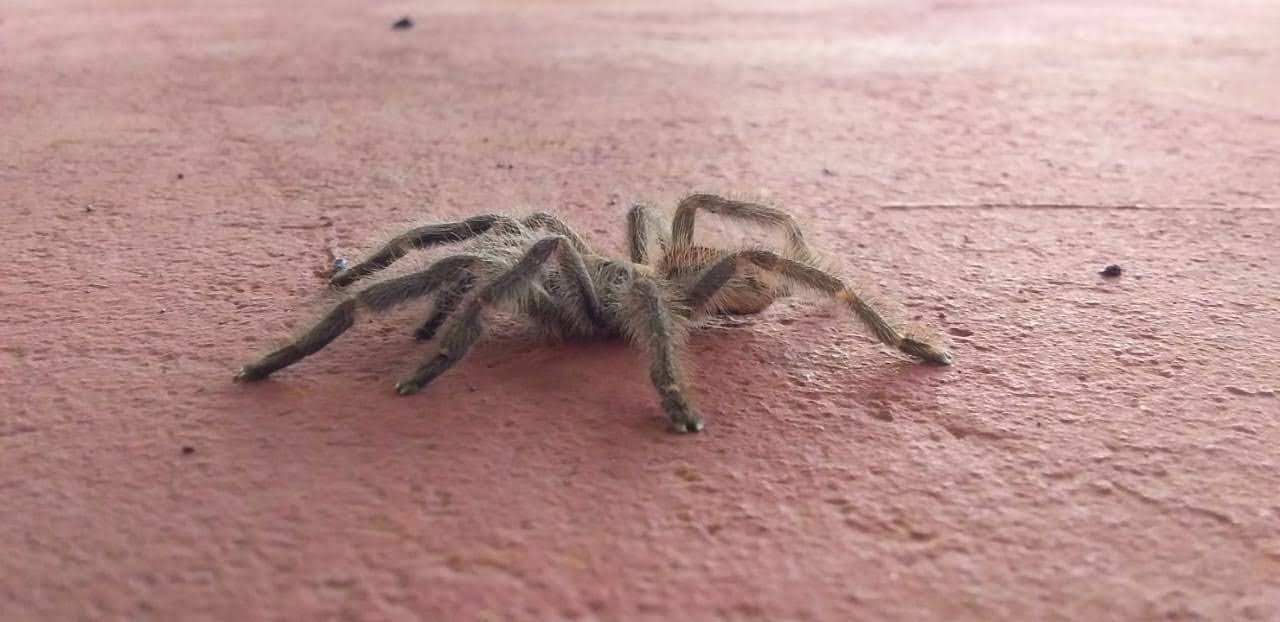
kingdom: Animalia
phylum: Arthropoda
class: Arachnida
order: Araneae
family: Theraphosidae
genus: Iridopelma
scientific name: Iridopelma hirsutum
